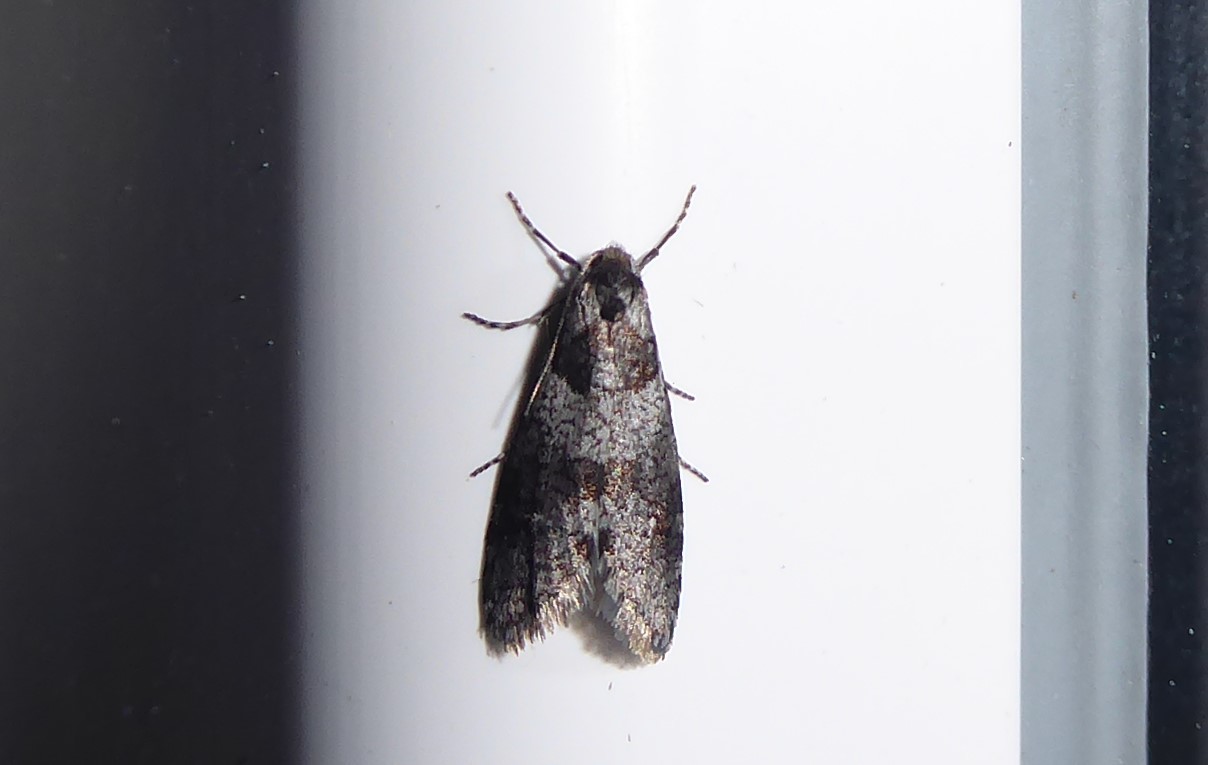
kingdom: Animalia
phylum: Arthropoda
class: Insecta
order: Lepidoptera
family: Psychidae
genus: Lepidoscia
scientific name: Lepidoscia heliochares
